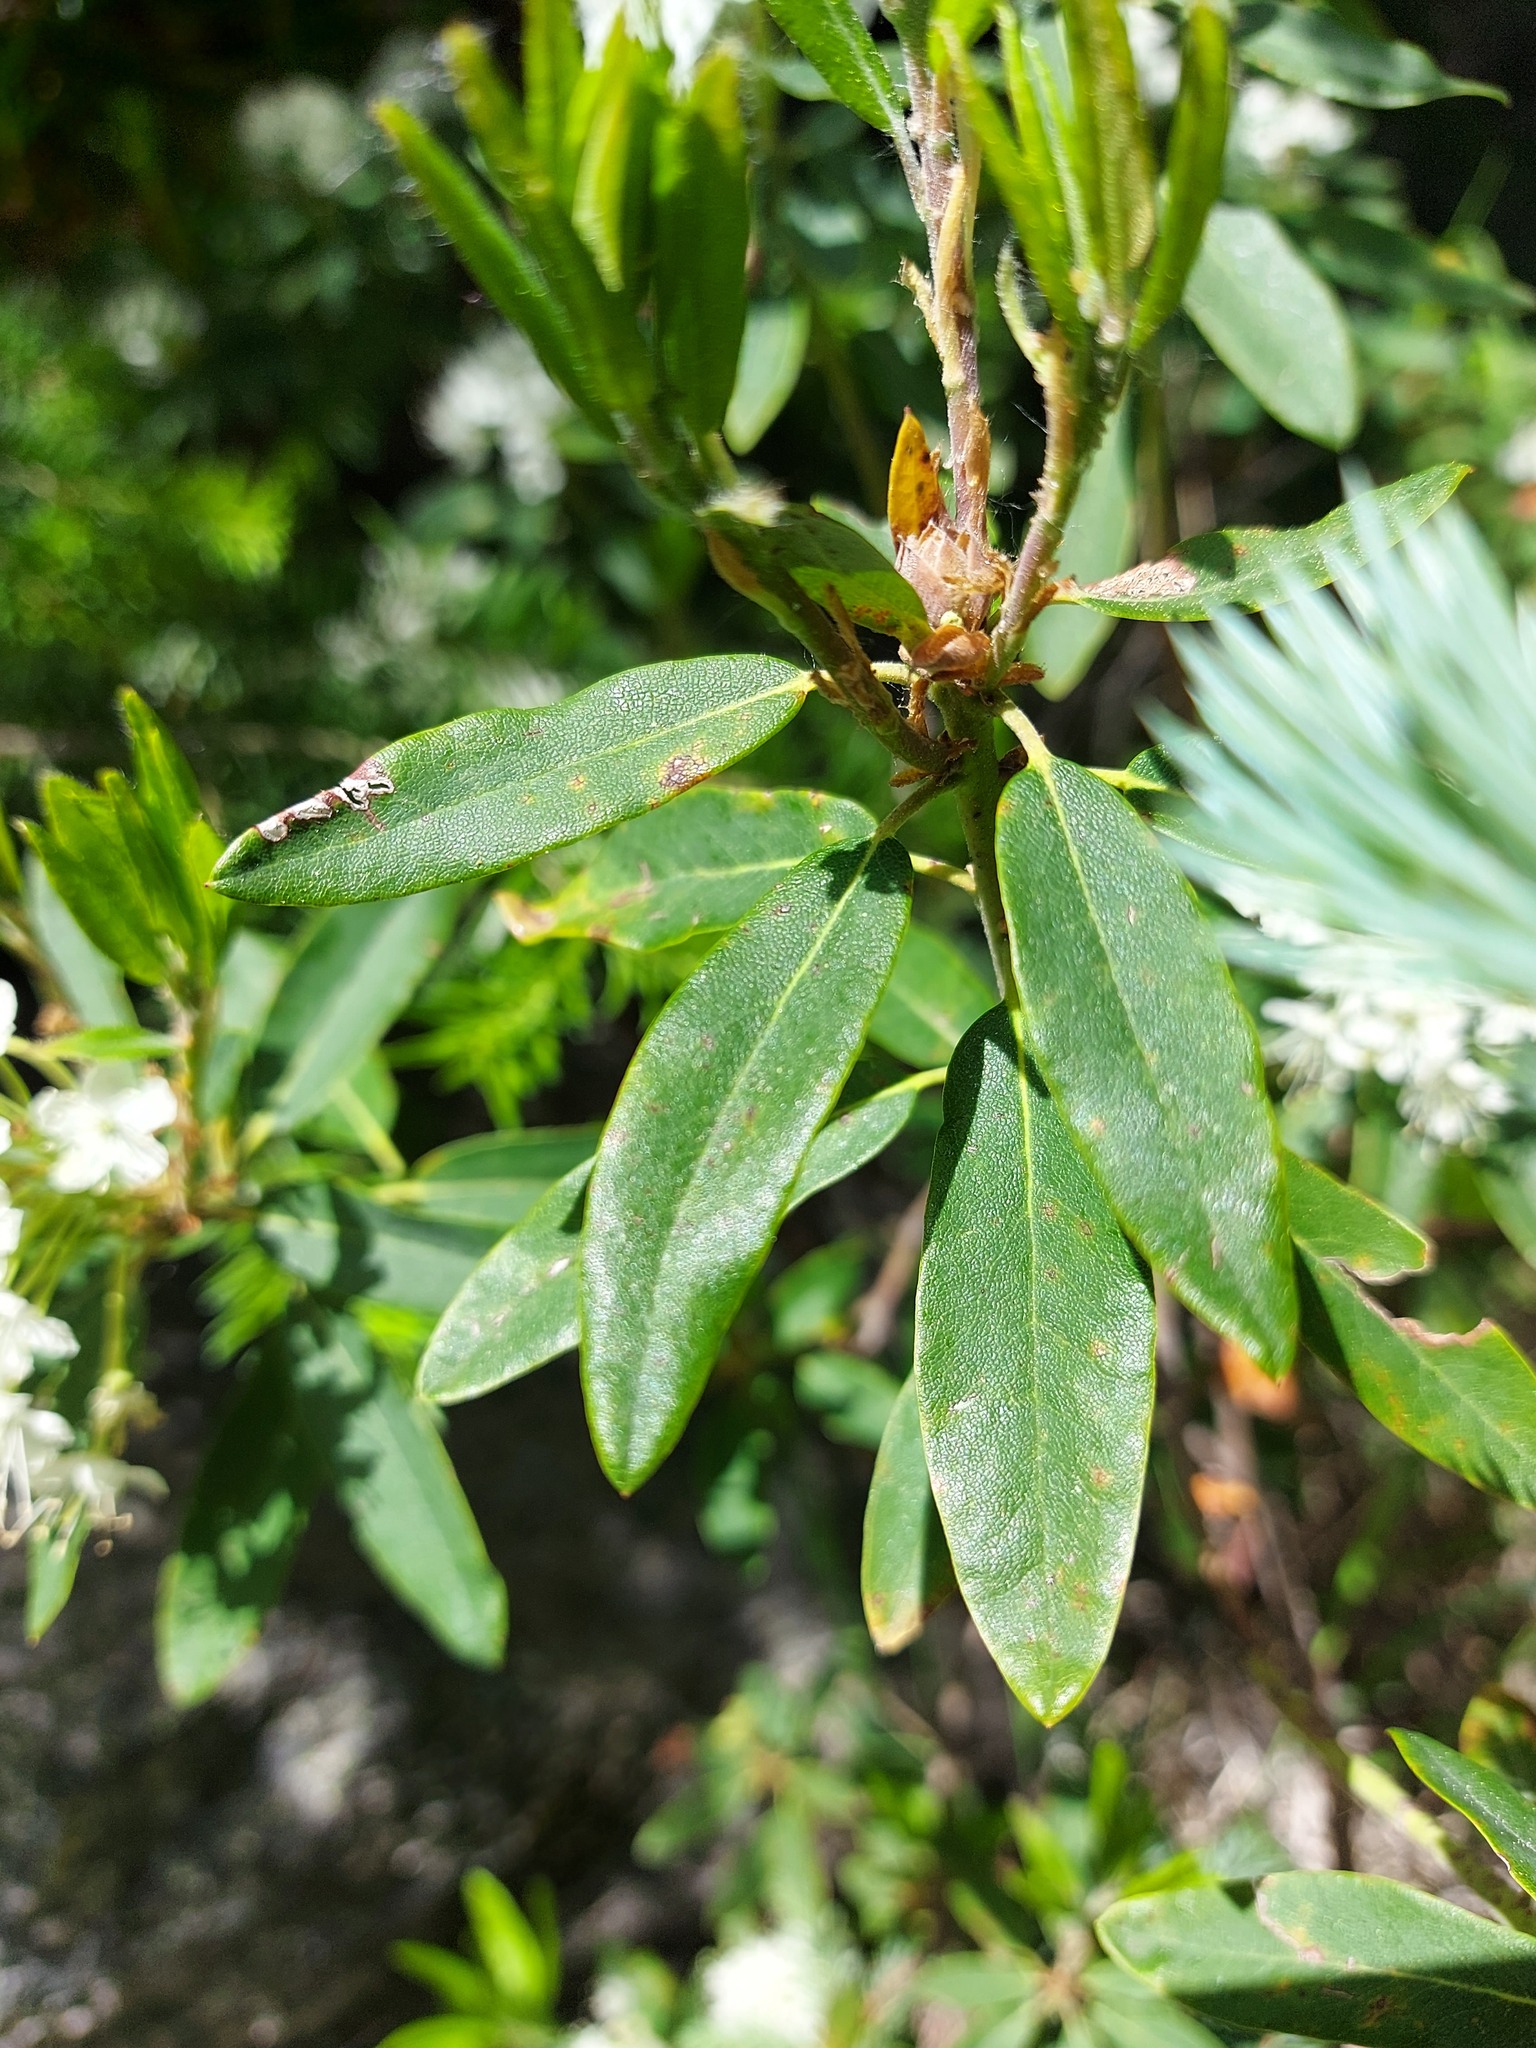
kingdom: Plantae
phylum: Tracheophyta
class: Magnoliopsida
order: Ericales
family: Ericaceae
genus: Rhododendron
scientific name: Rhododendron columbianum
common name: Western labrador tea
